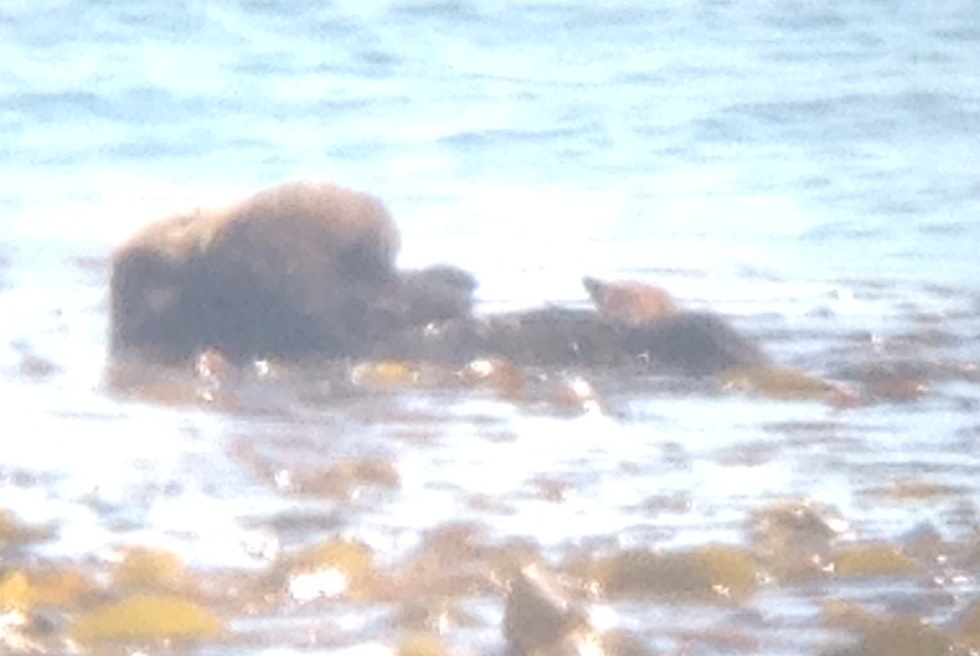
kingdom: Animalia
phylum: Chordata
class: Mammalia
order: Carnivora
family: Mustelidae
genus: Enhydra
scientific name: Enhydra lutris
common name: Sea otter
